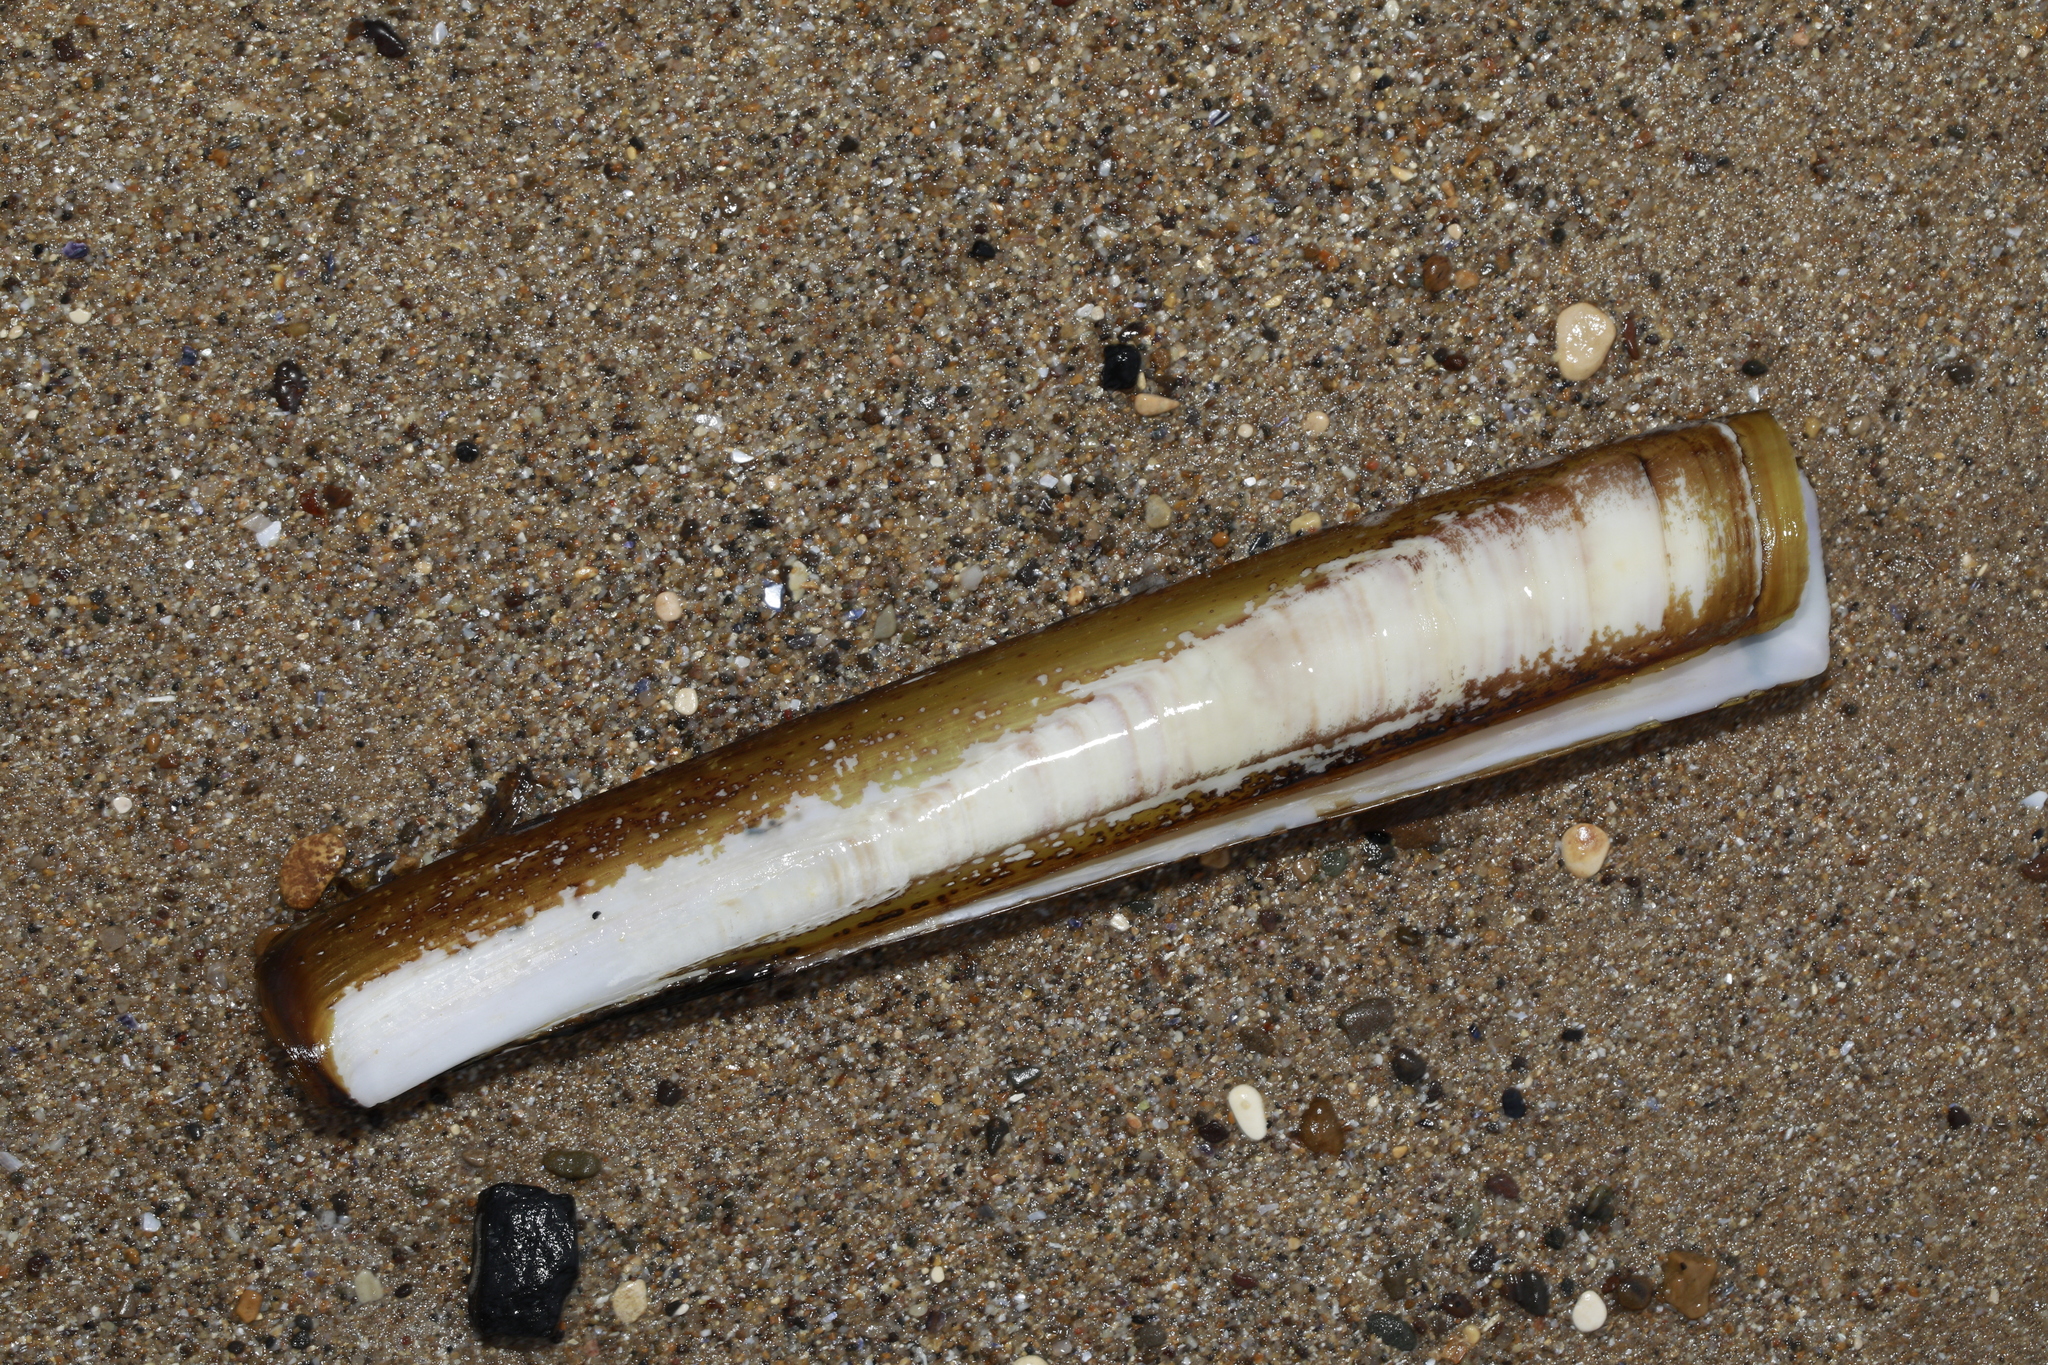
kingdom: Animalia
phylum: Mollusca
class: Bivalvia
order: Adapedonta
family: Pharidae
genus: Ensis
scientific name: Ensis siliqua
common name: Pod razor shell
